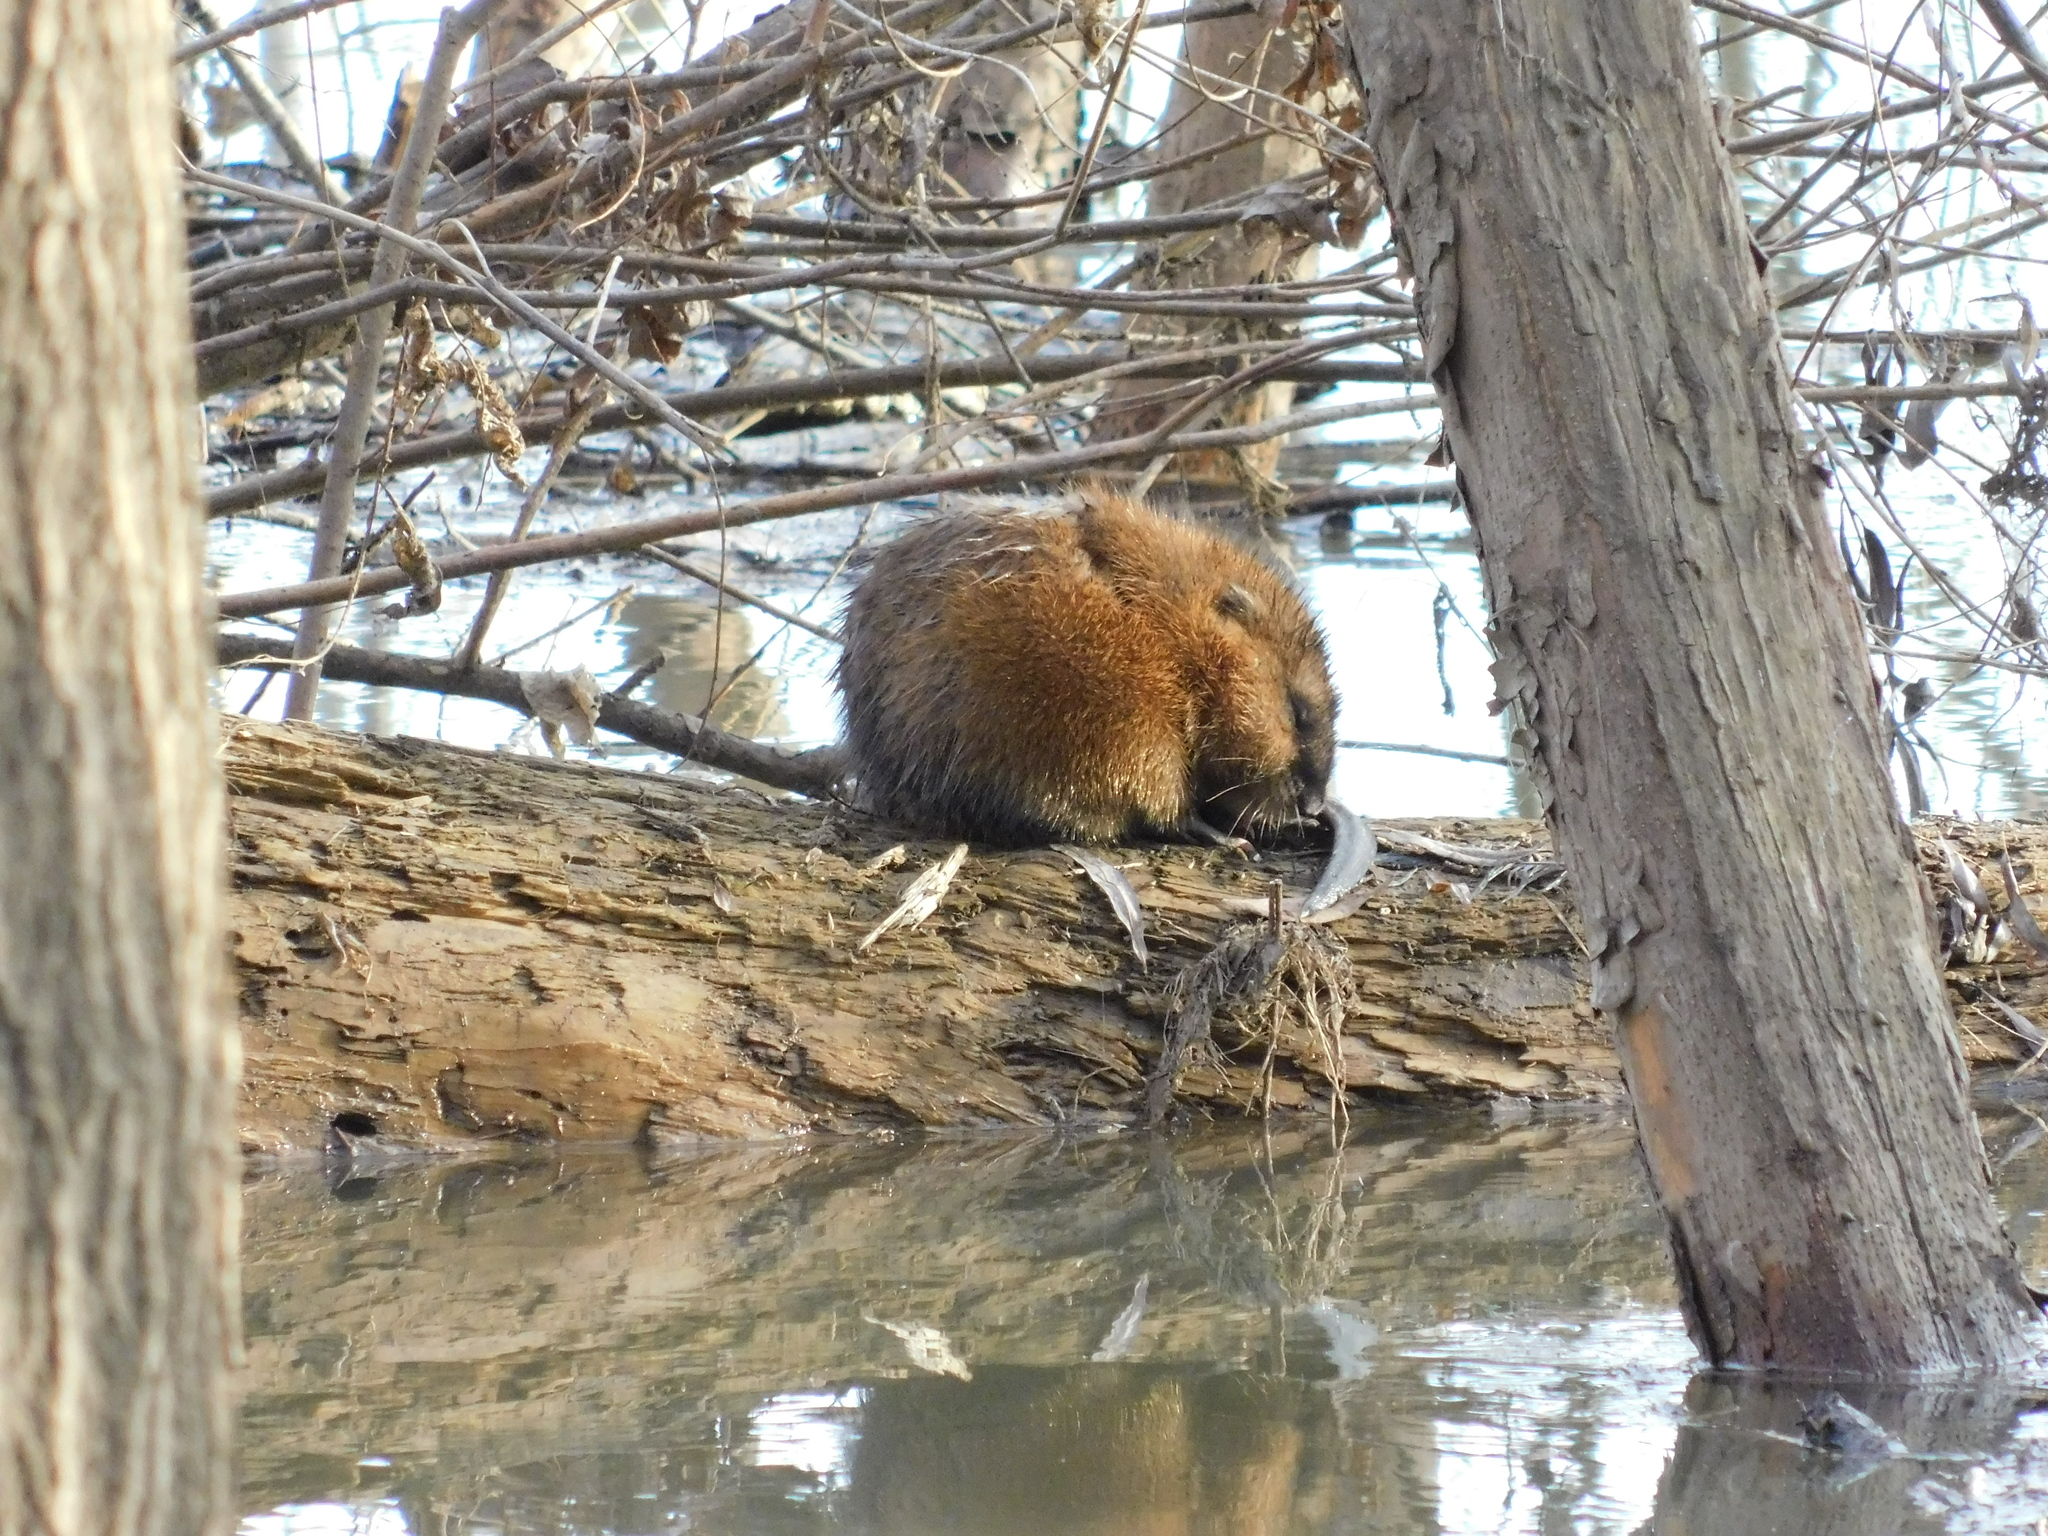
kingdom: Animalia
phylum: Chordata
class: Mammalia
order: Rodentia
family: Cricetidae
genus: Ondatra
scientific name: Ondatra zibethicus
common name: Muskrat
